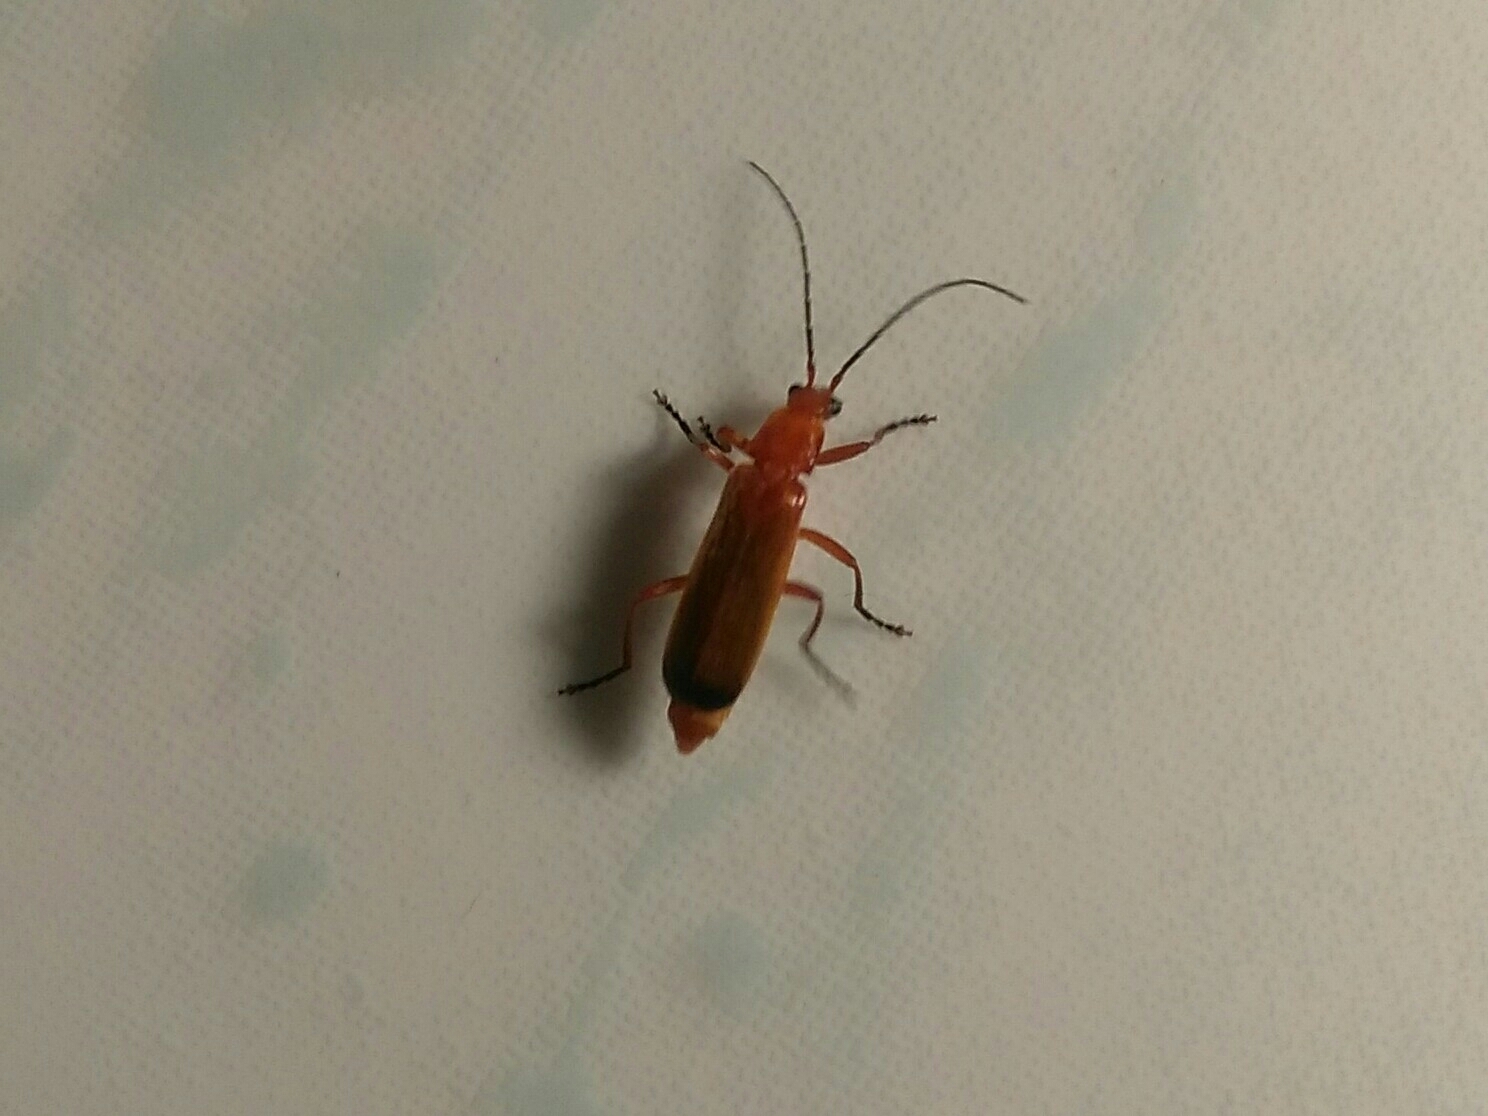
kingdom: Animalia
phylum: Arthropoda
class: Insecta
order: Coleoptera
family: Cantharidae
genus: Rhagonycha
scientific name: Rhagonycha fulva
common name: Common red soldier beetle
